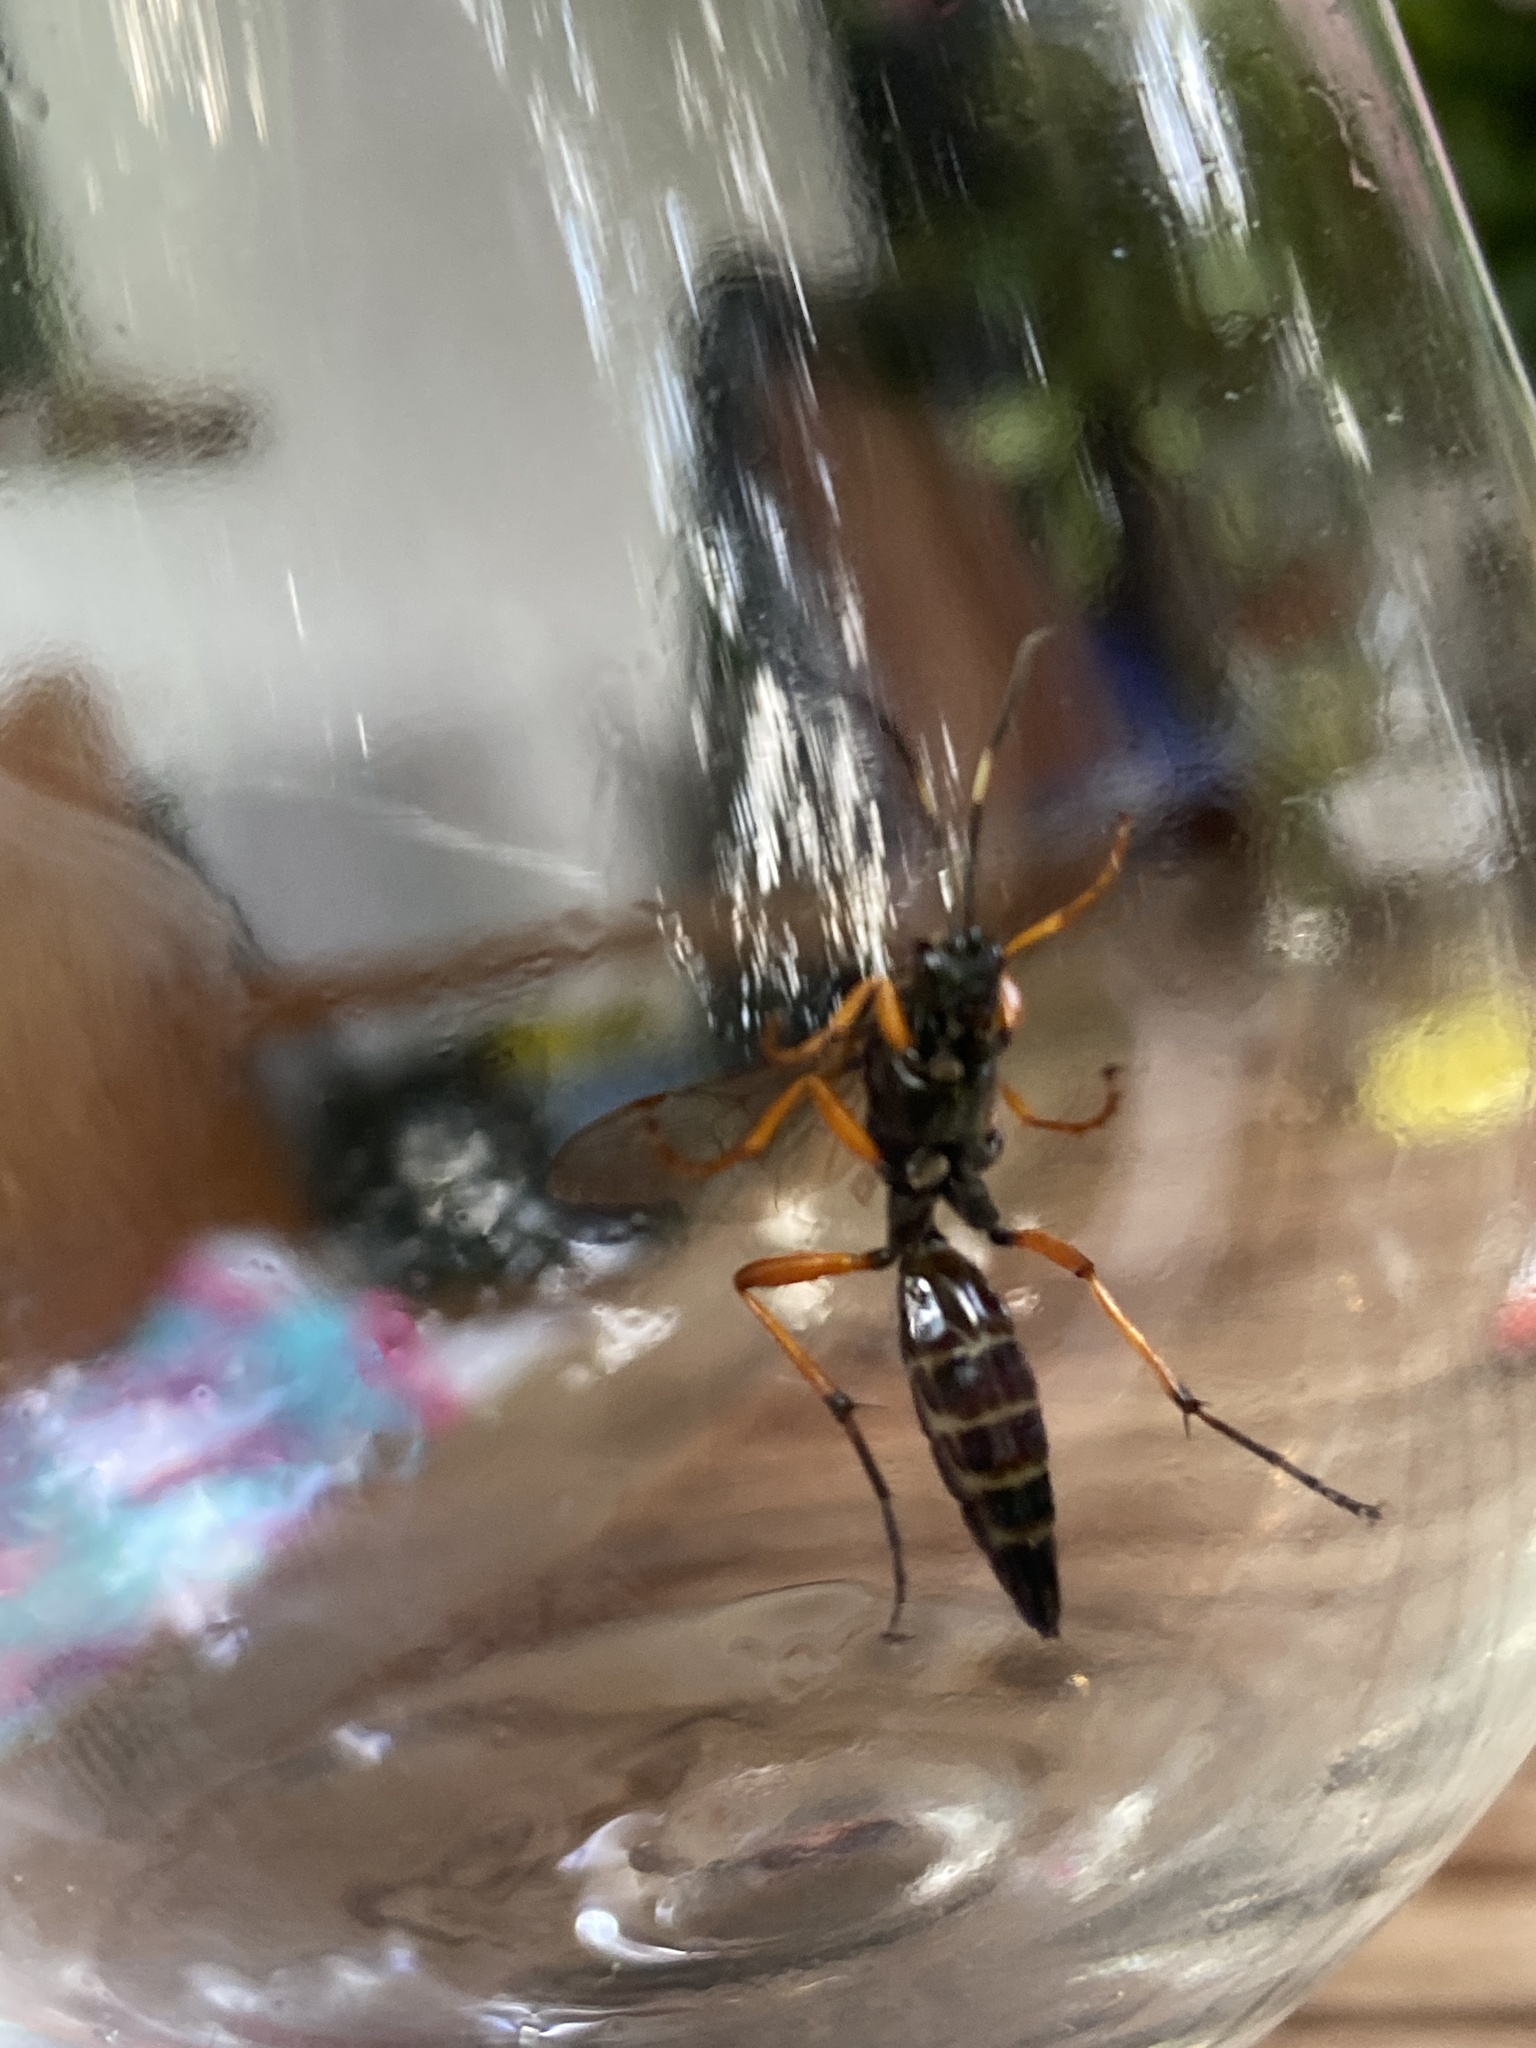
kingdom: Animalia
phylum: Arthropoda
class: Insecta
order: Hymenoptera
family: Ichneumonidae
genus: Diphyus
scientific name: Diphyus quadripunctorius
